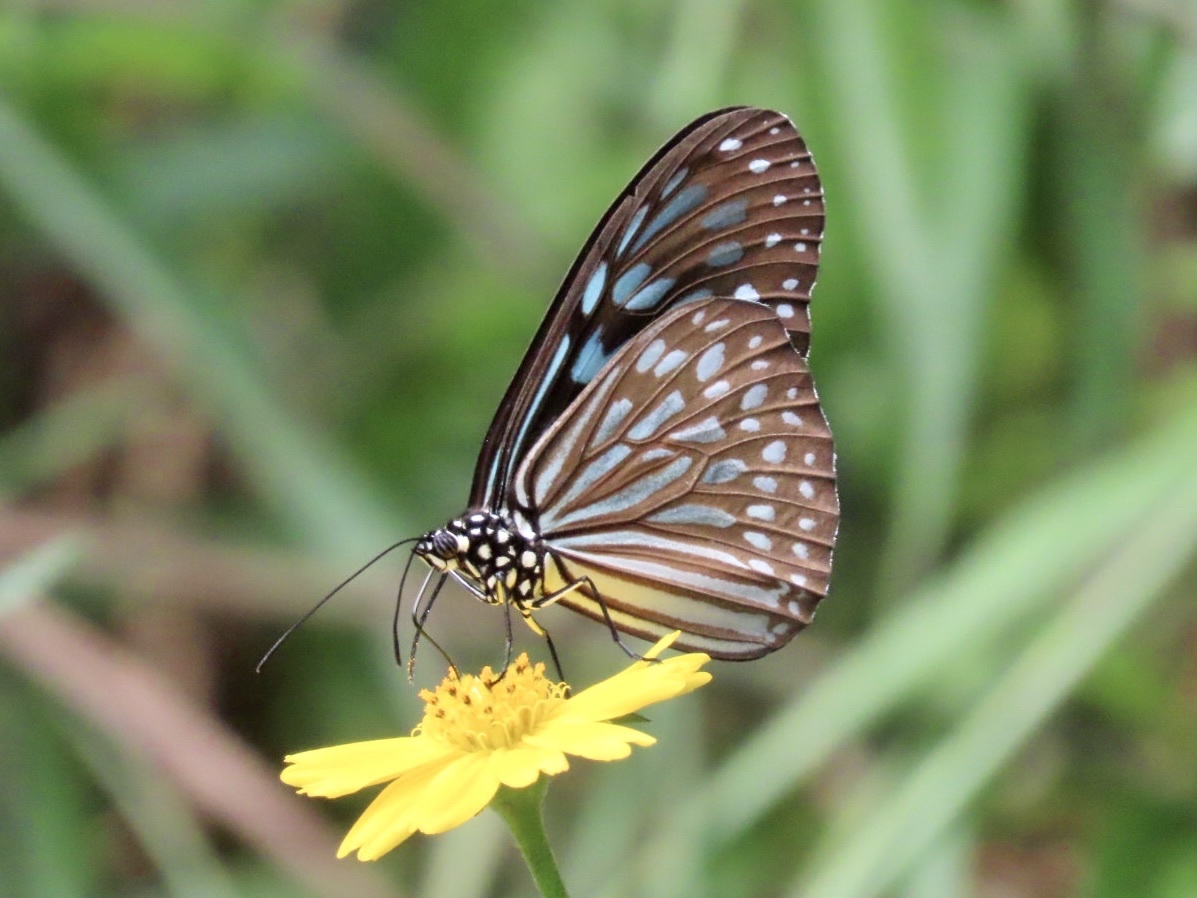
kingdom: Animalia
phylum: Arthropoda
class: Insecta
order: Lepidoptera
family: Nymphalidae
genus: Ideopsis
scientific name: Ideopsis similis
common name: Ceylon blue glassy tiger
